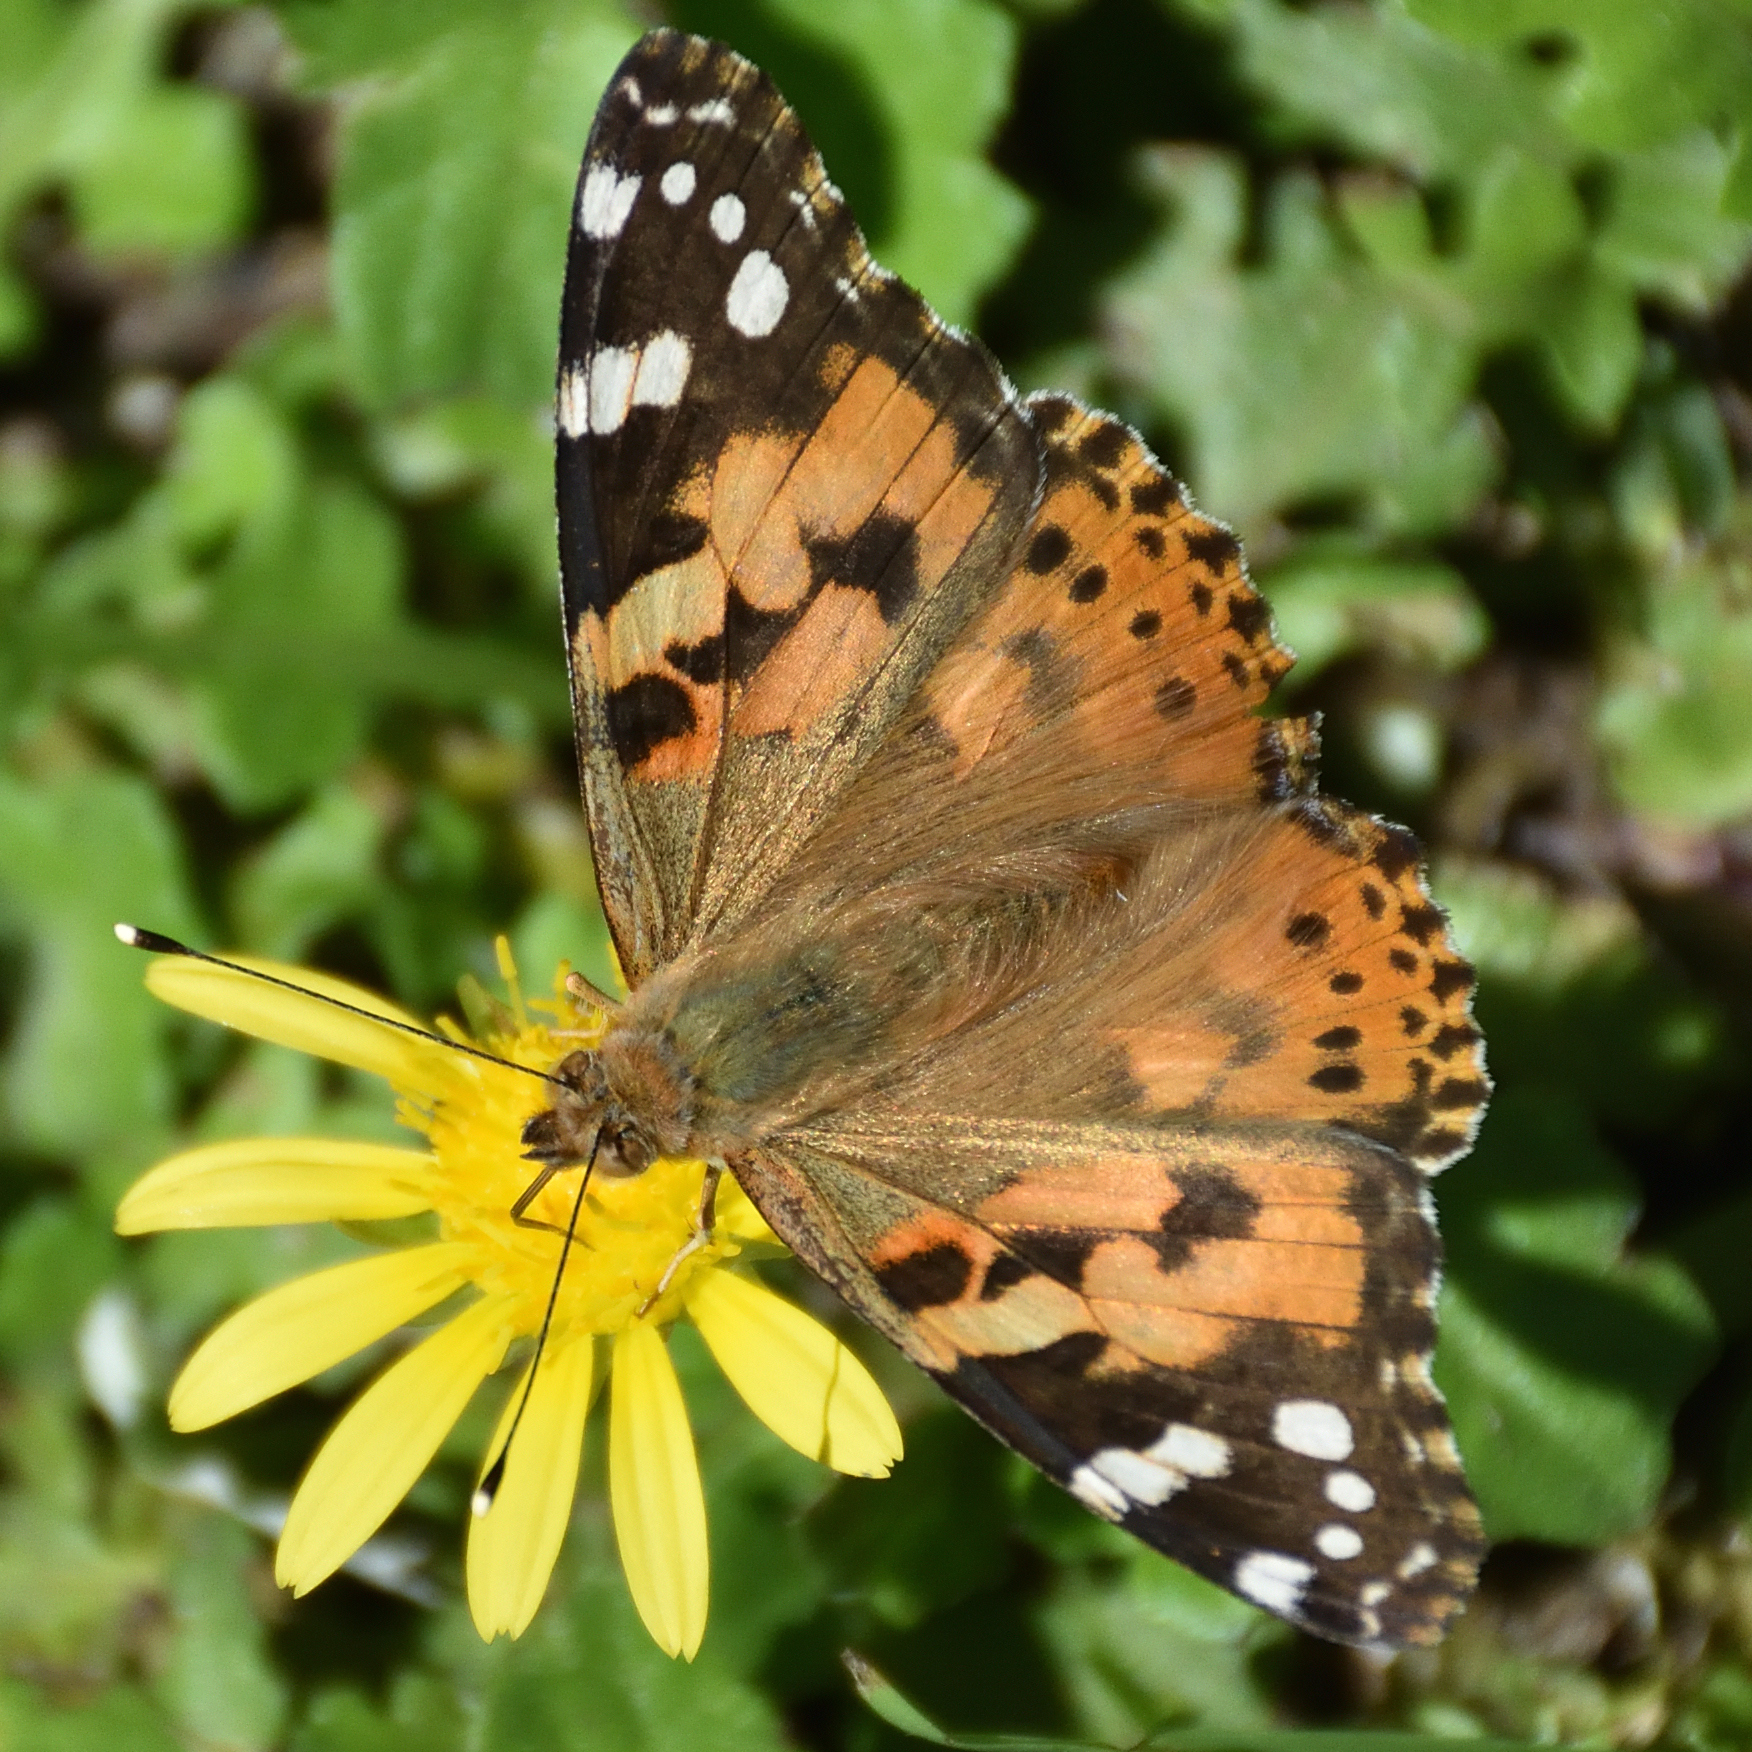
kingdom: Animalia
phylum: Arthropoda
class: Insecta
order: Lepidoptera
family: Nymphalidae
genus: Vanessa
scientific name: Vanessa cardui
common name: Painted lady
